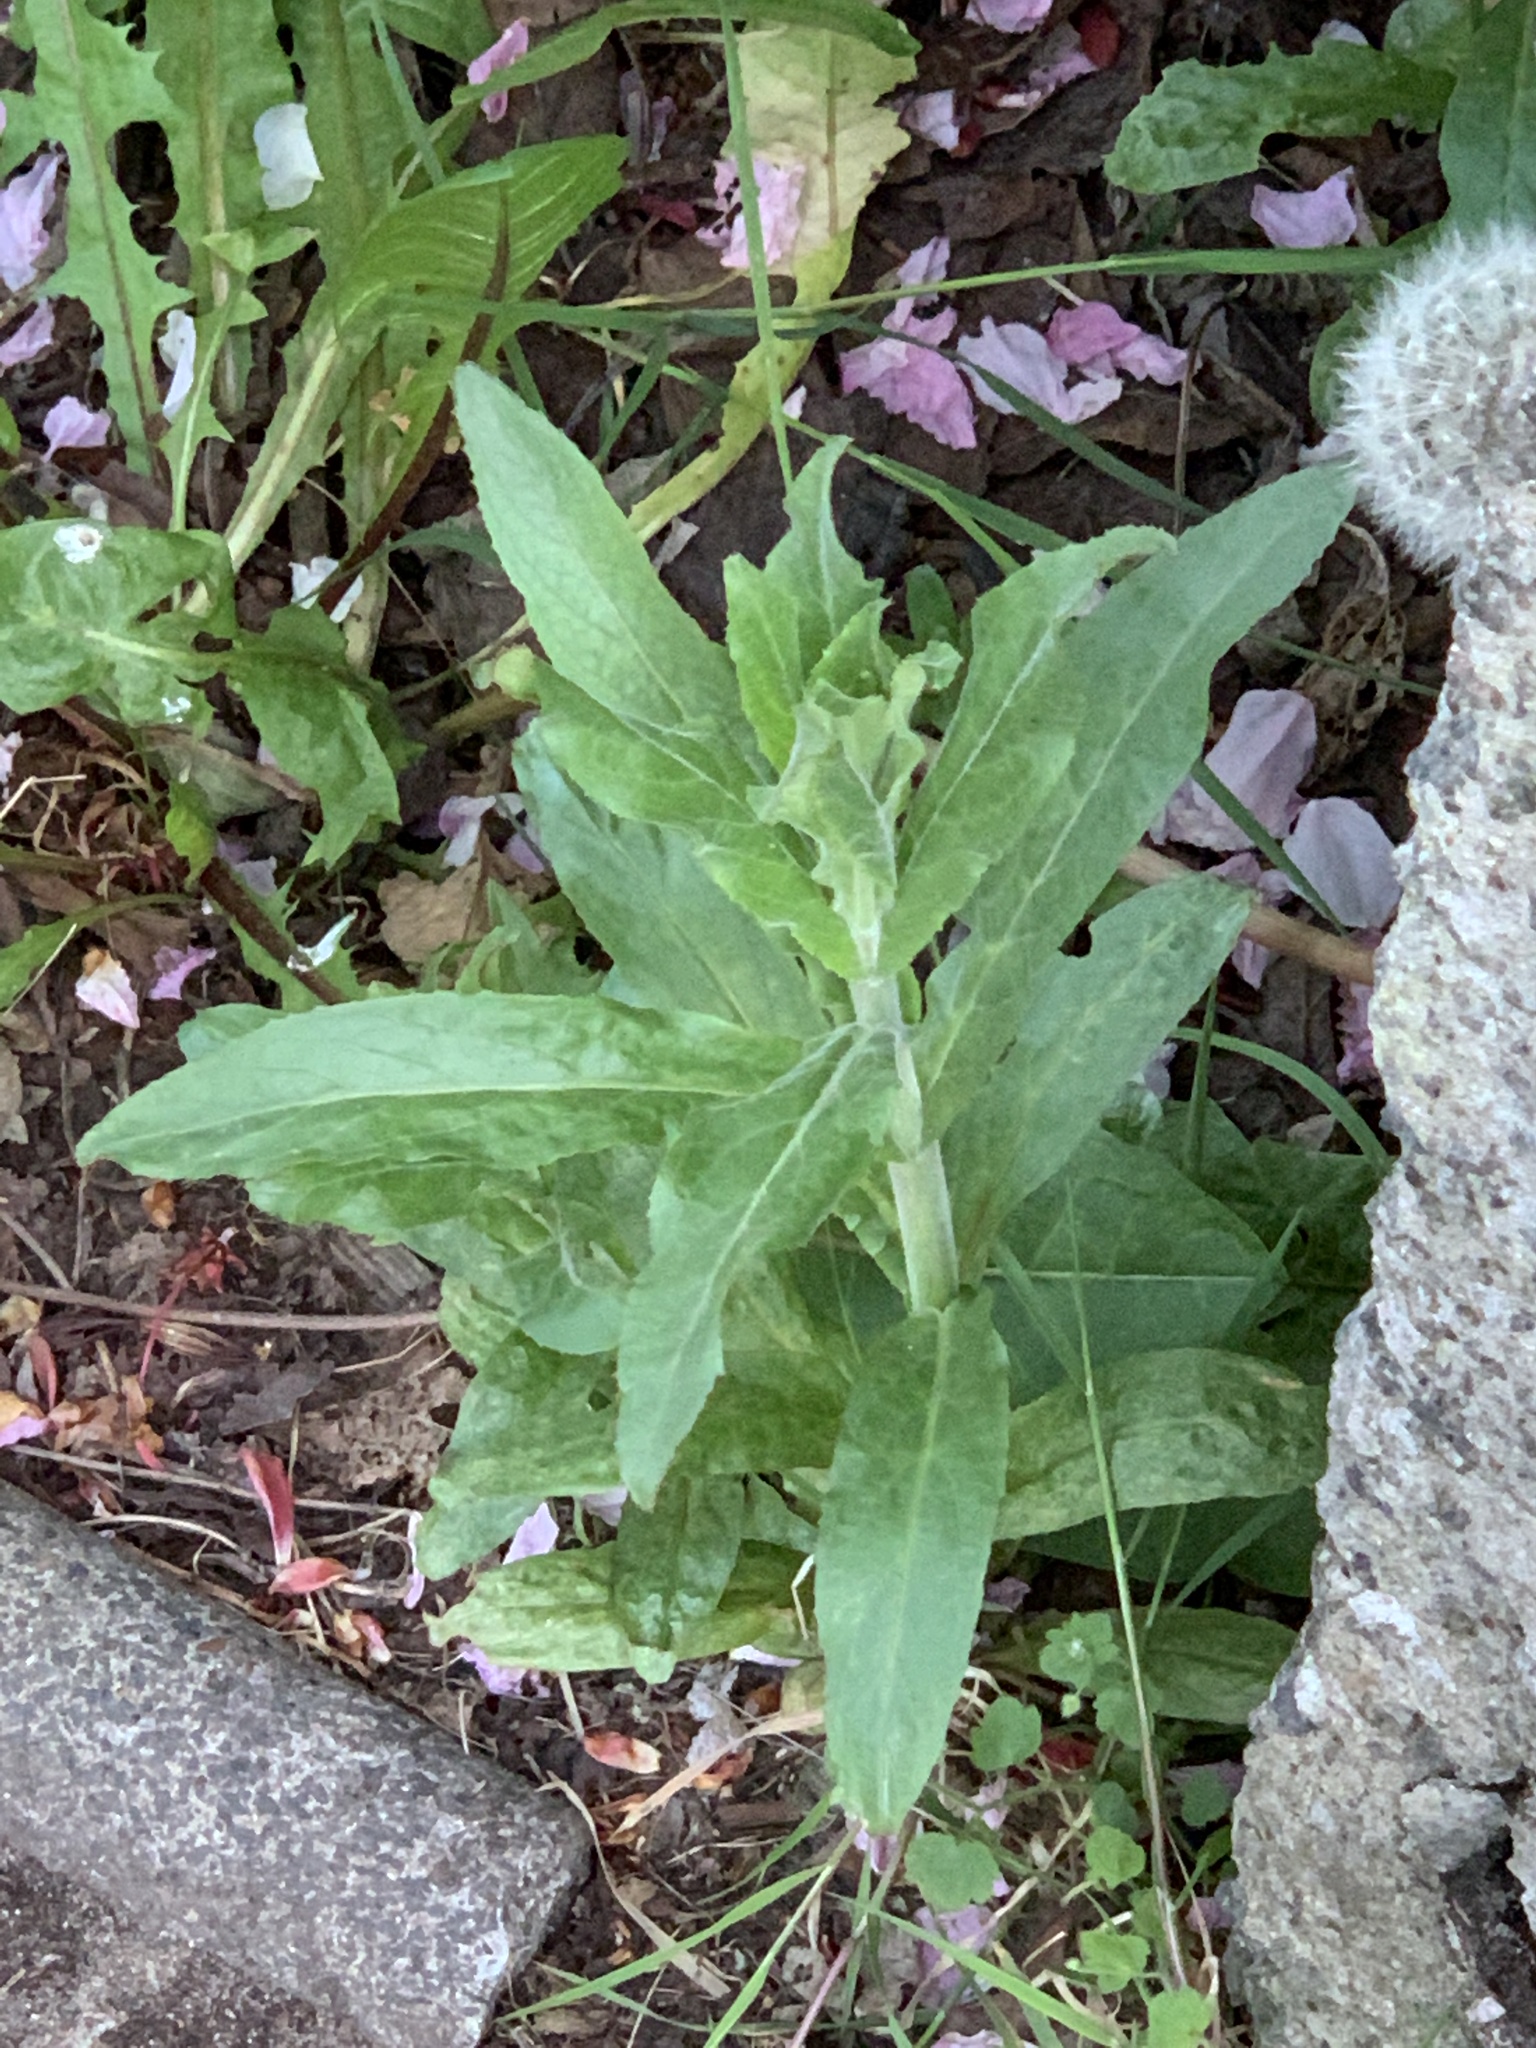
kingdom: Plantae
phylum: Tracheophyta
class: Magnoliopsida
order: Myrtales
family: Onagraceae
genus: Epilobium
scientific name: Epilobium hirsutum
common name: Great willowherb
